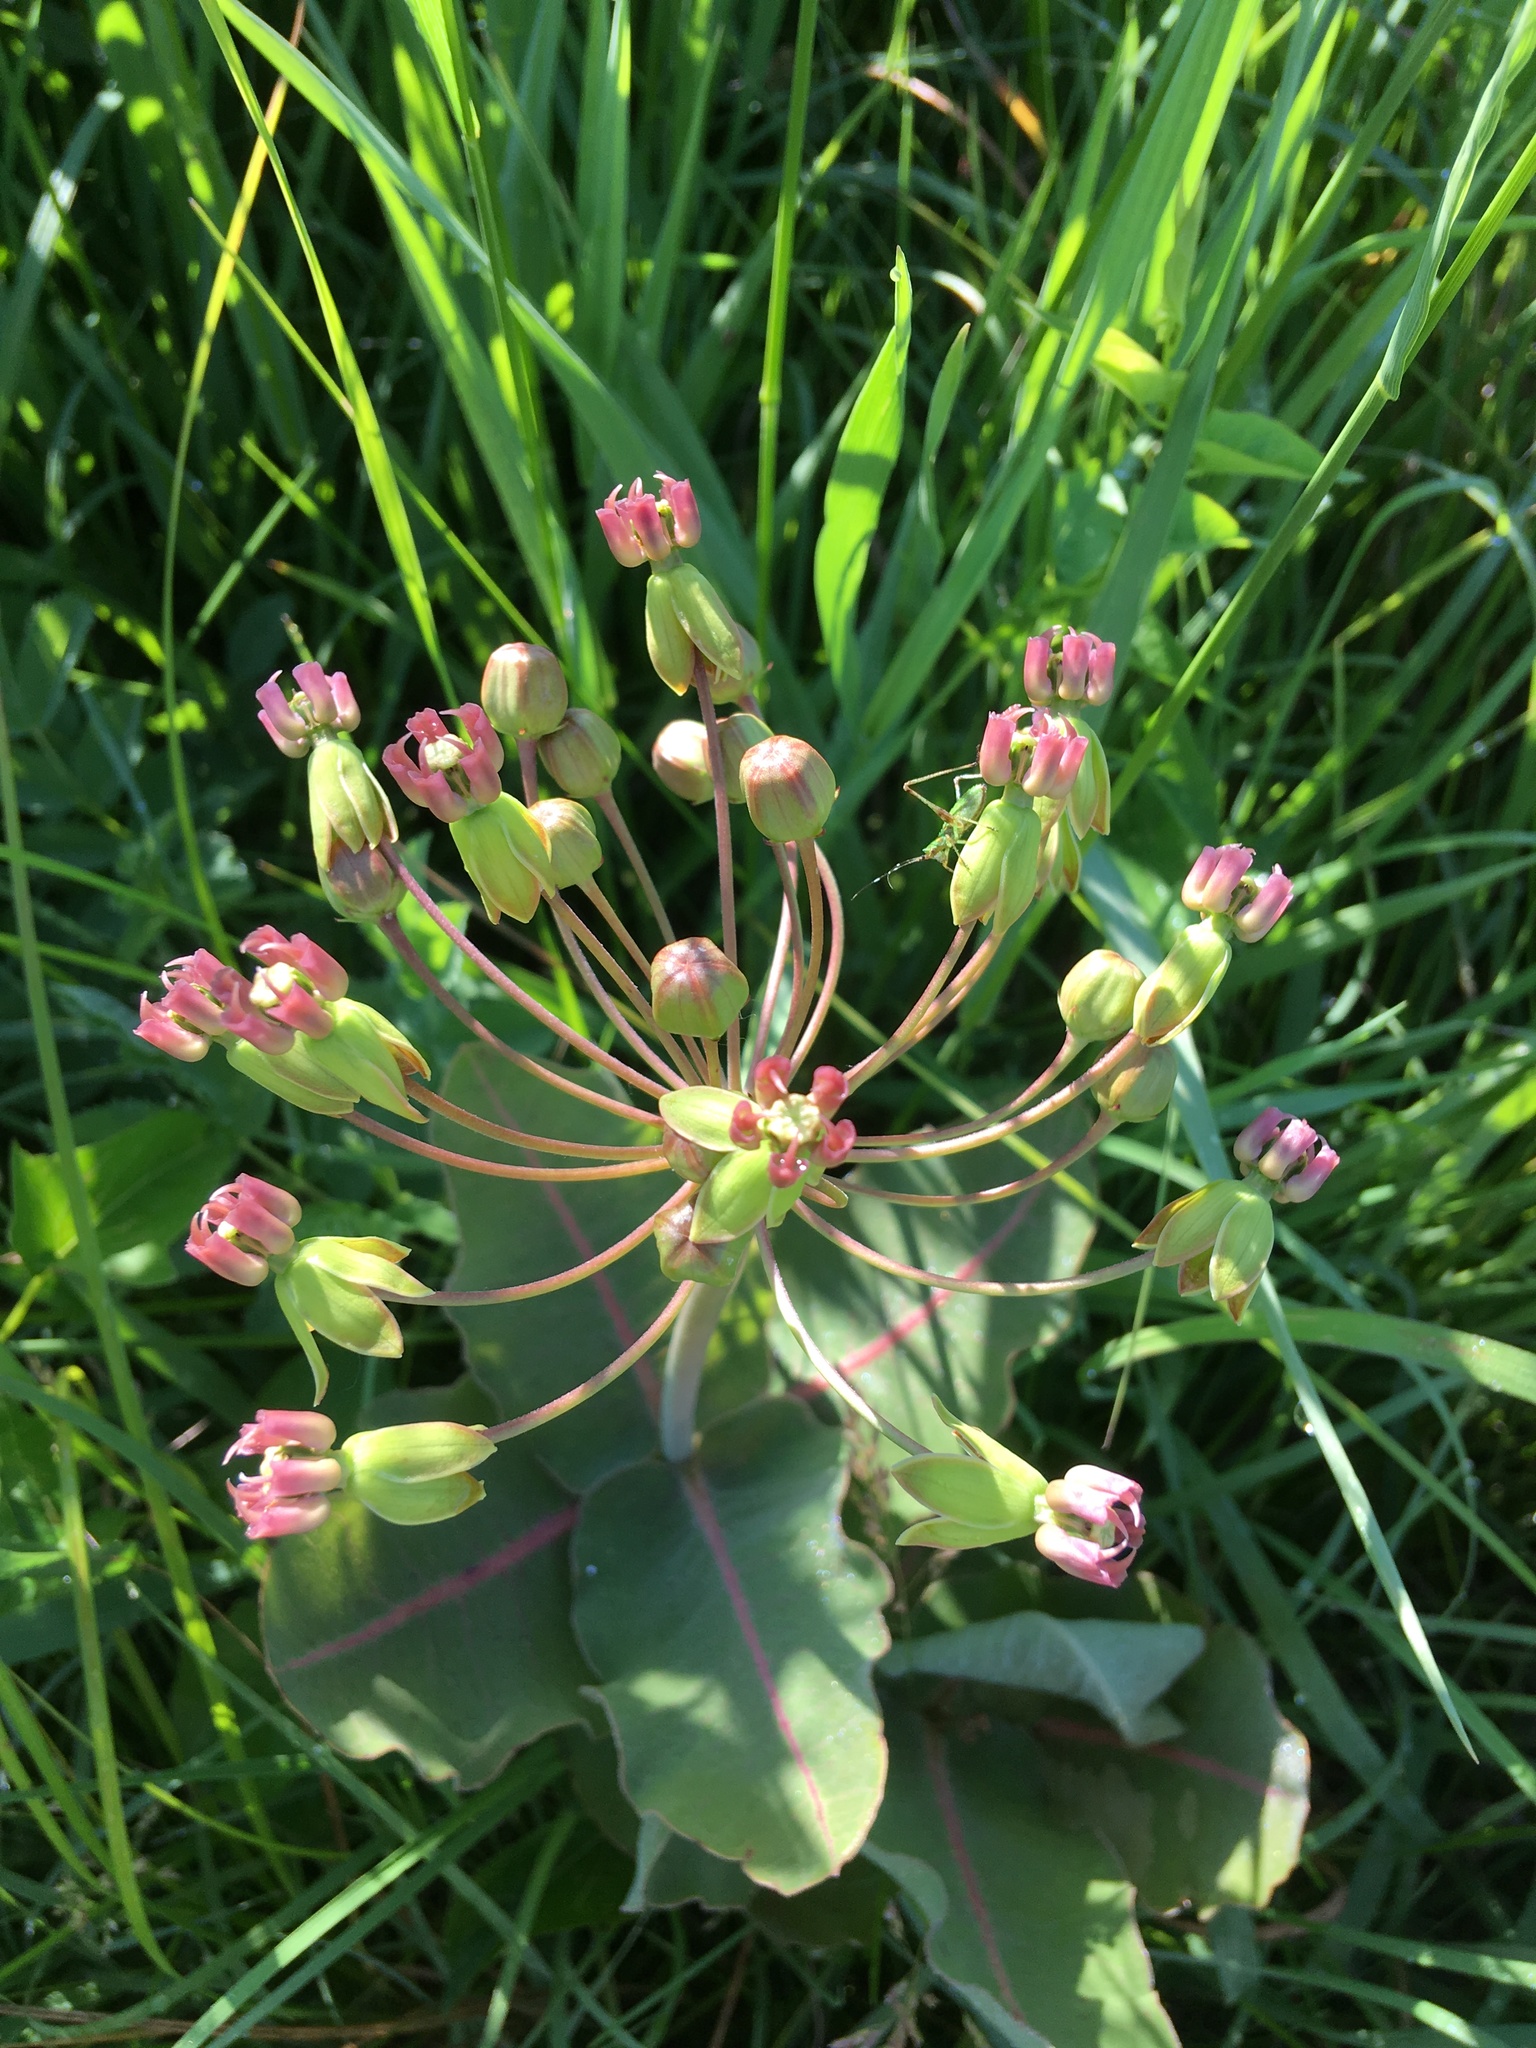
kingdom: Plantae
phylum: Tracheophyta
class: Magnoliopsida
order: Gentianales
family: Apocynaceae
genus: Asclepias
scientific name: Asclepias amplexicaulis
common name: Blunt-leaf milkweed
